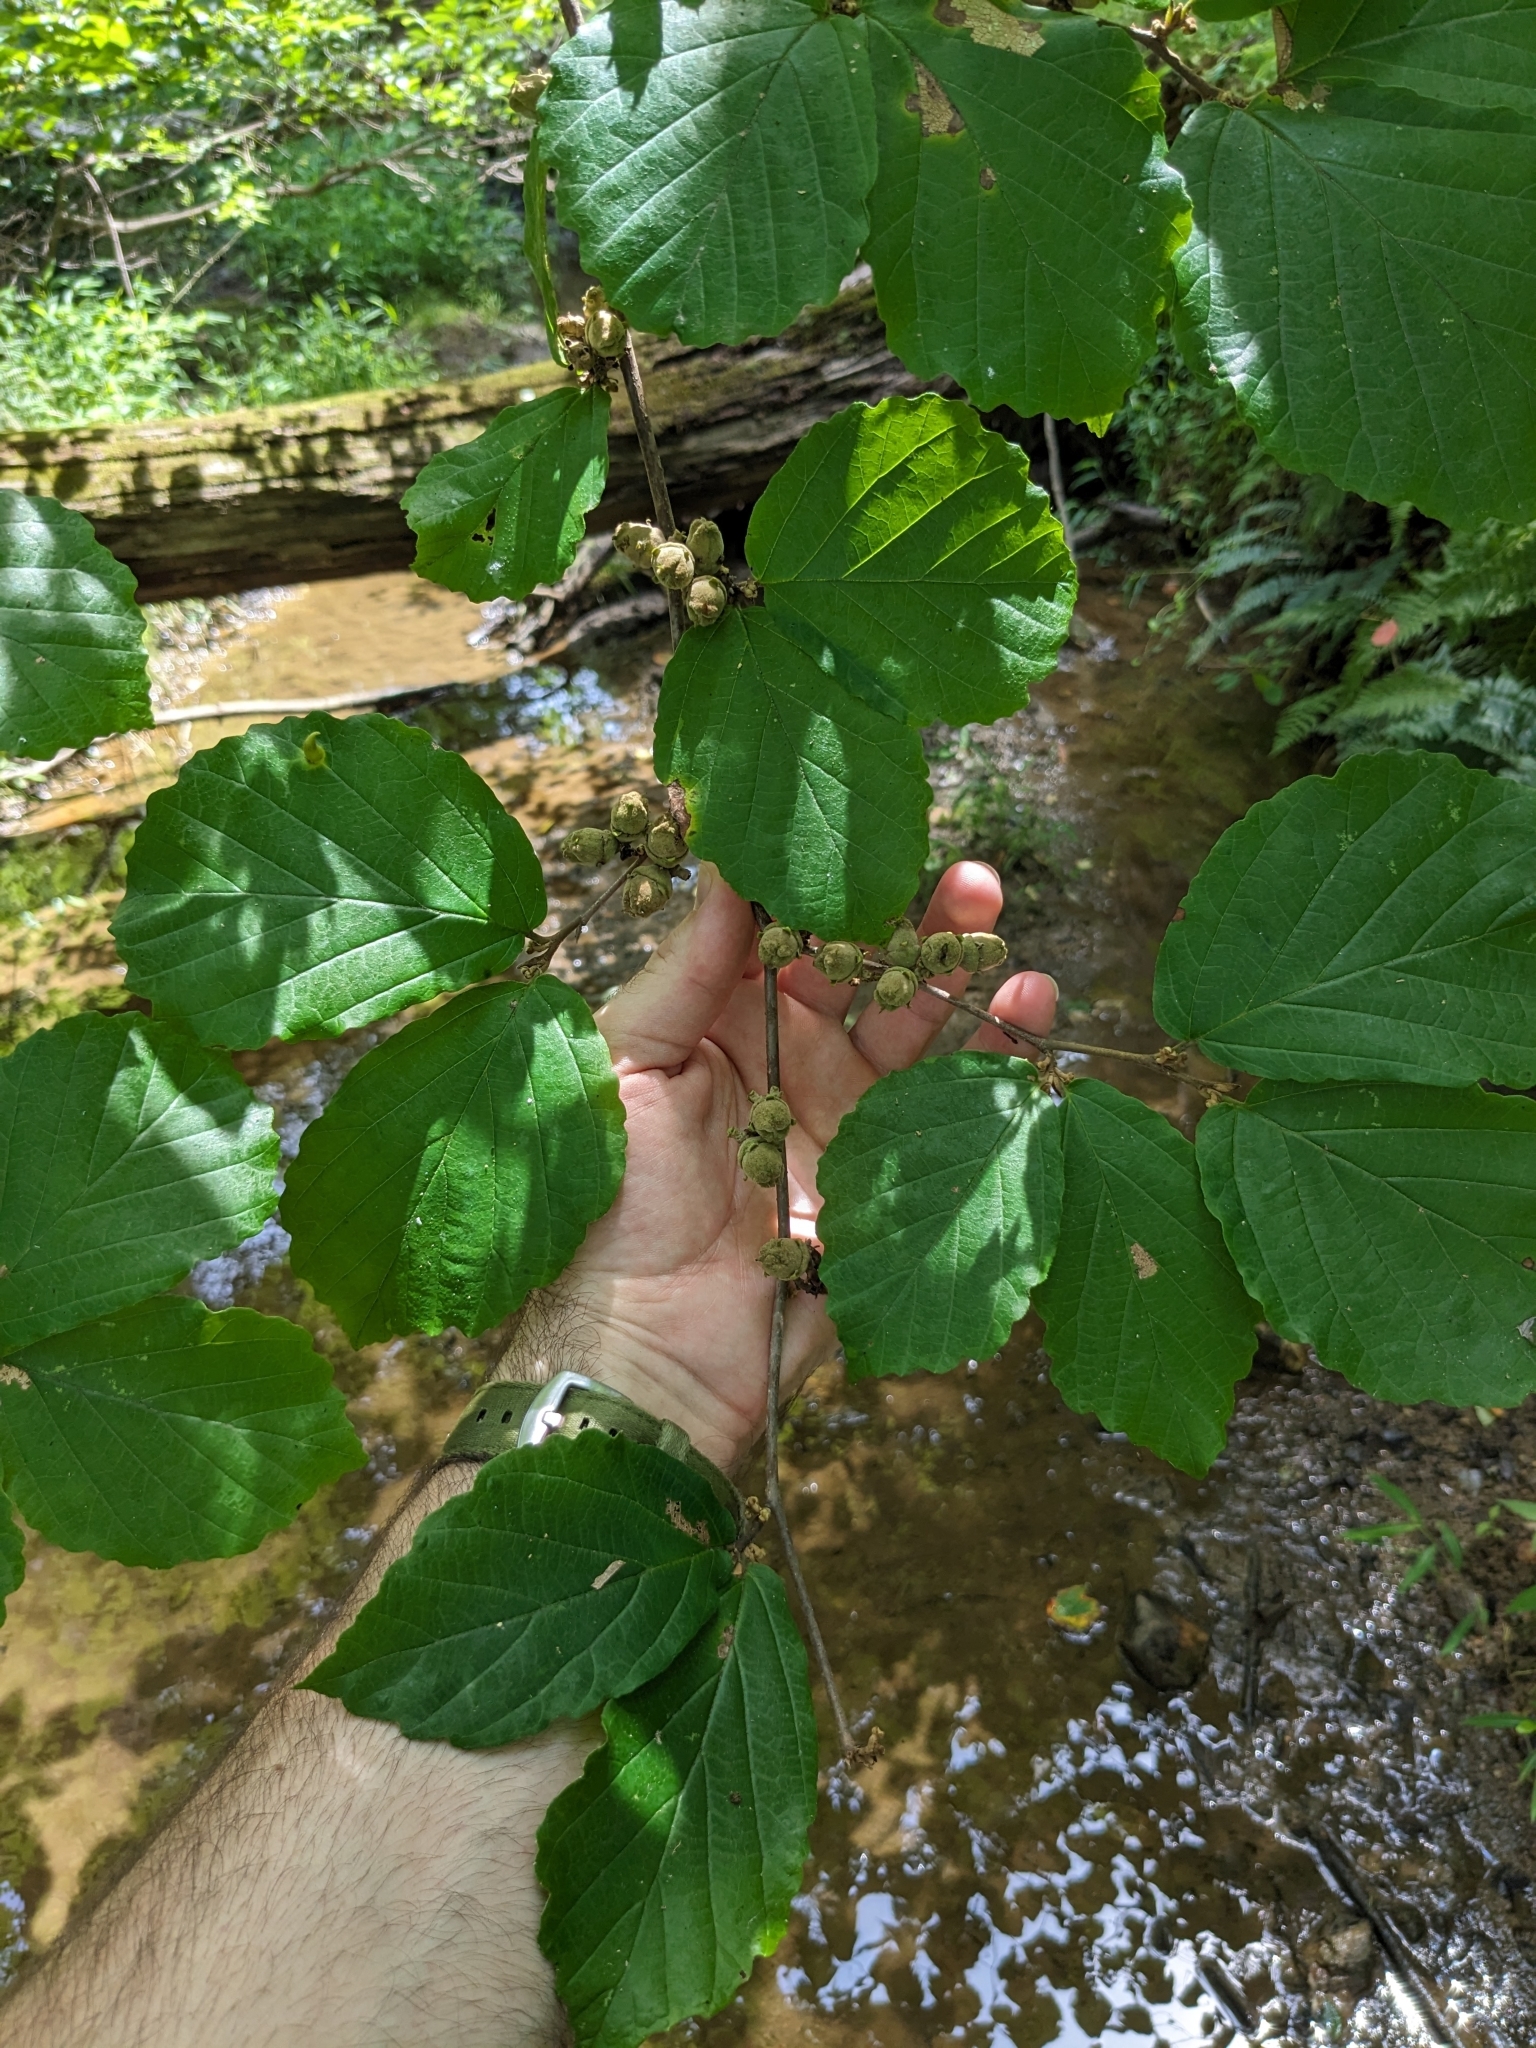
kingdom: Plantae
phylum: Tracheophyta
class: Magnoliopsida
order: Saxifragales
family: Hamamelidaceae
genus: Hamamelis
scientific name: Hamamelis virginiana
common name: Witch-hazel
